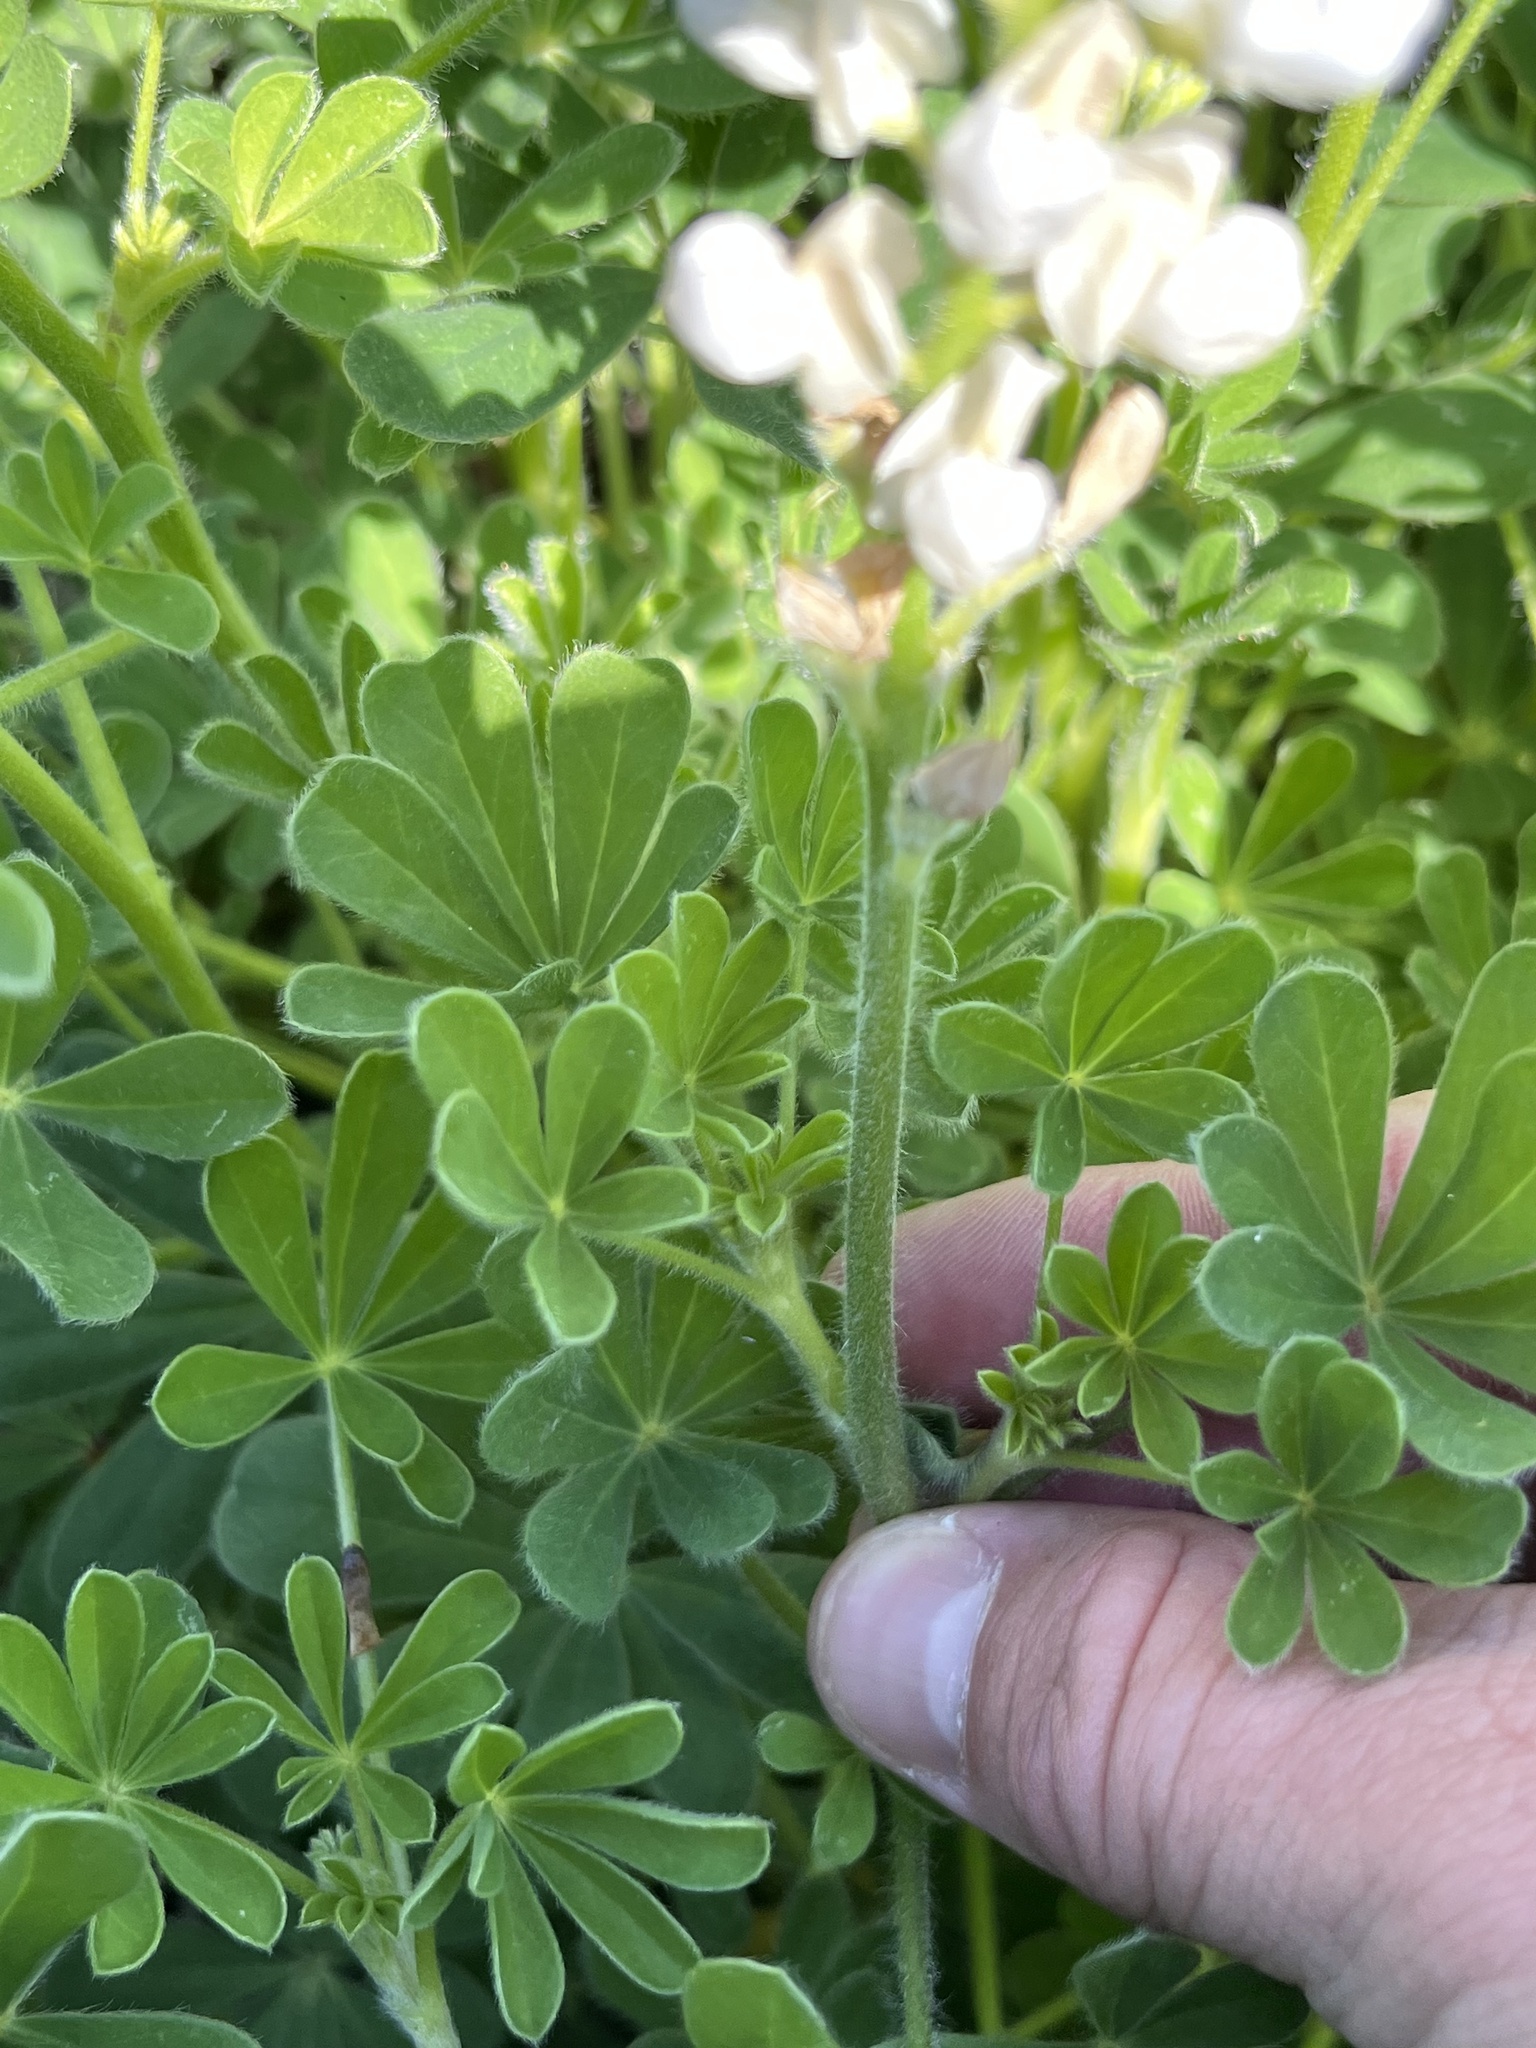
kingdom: Plantae
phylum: Tracheophyta
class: Magnoliopsida
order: Fabales
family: Fabaceae
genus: Lupinus
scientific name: Lupinus subcarnosus
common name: Texas bluebonnet
